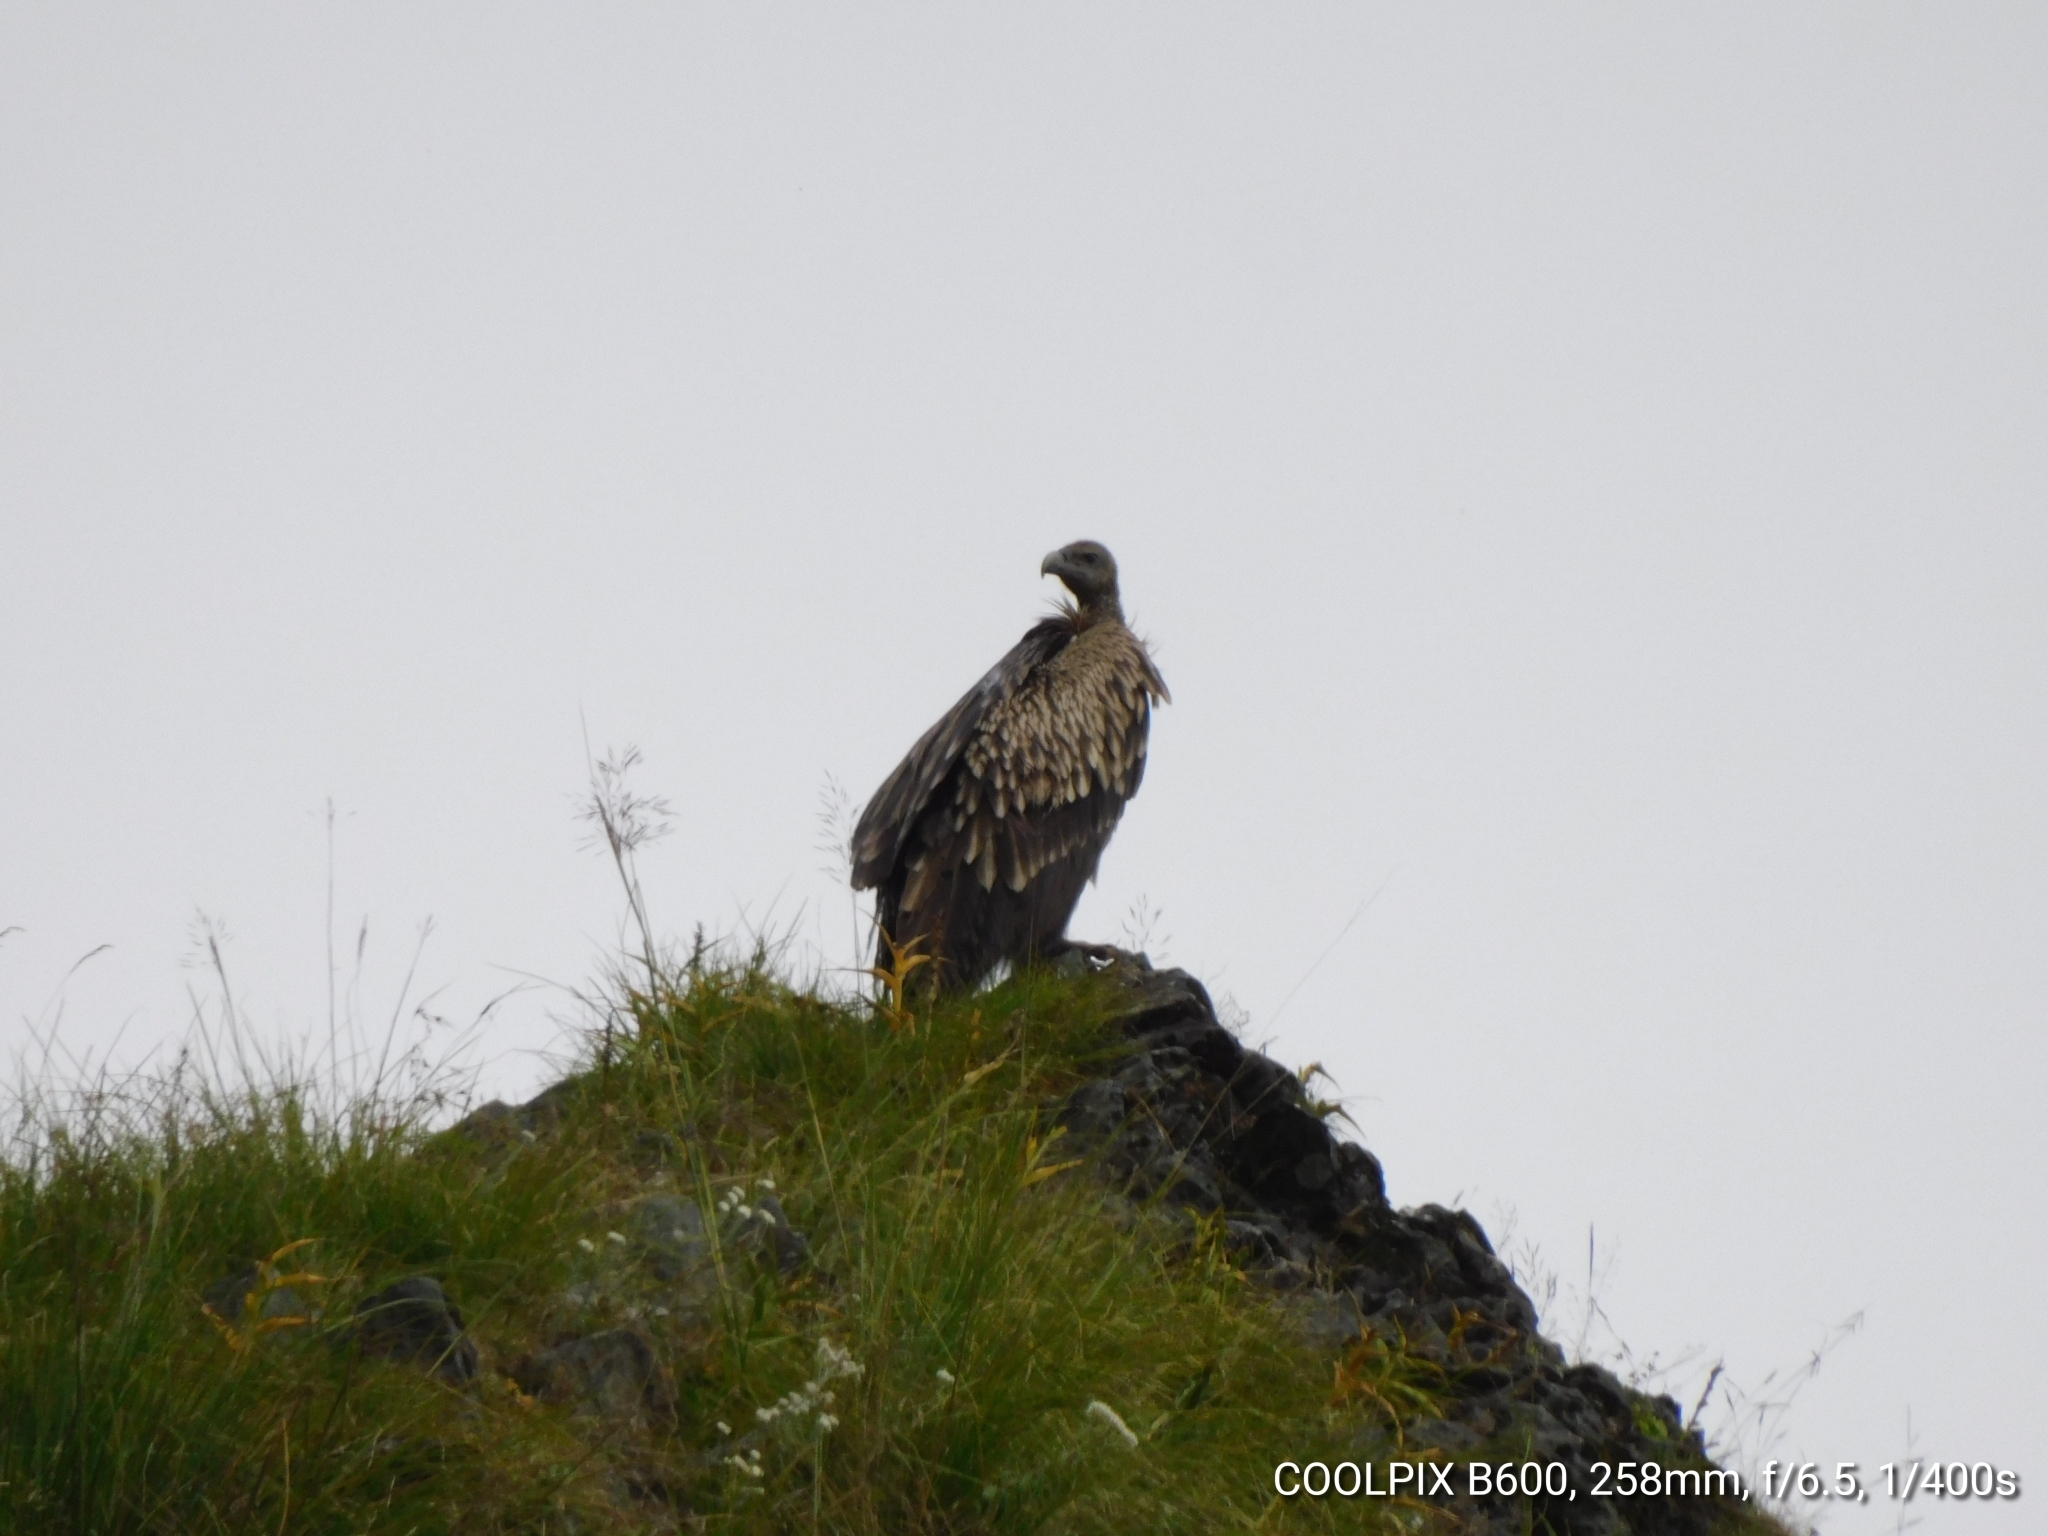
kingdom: Animalia
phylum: Chordata
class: Aves
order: Accipitriformes
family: Accipitridae
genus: Gyps
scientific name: Gyps himalayensis
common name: Himalayan griffon
